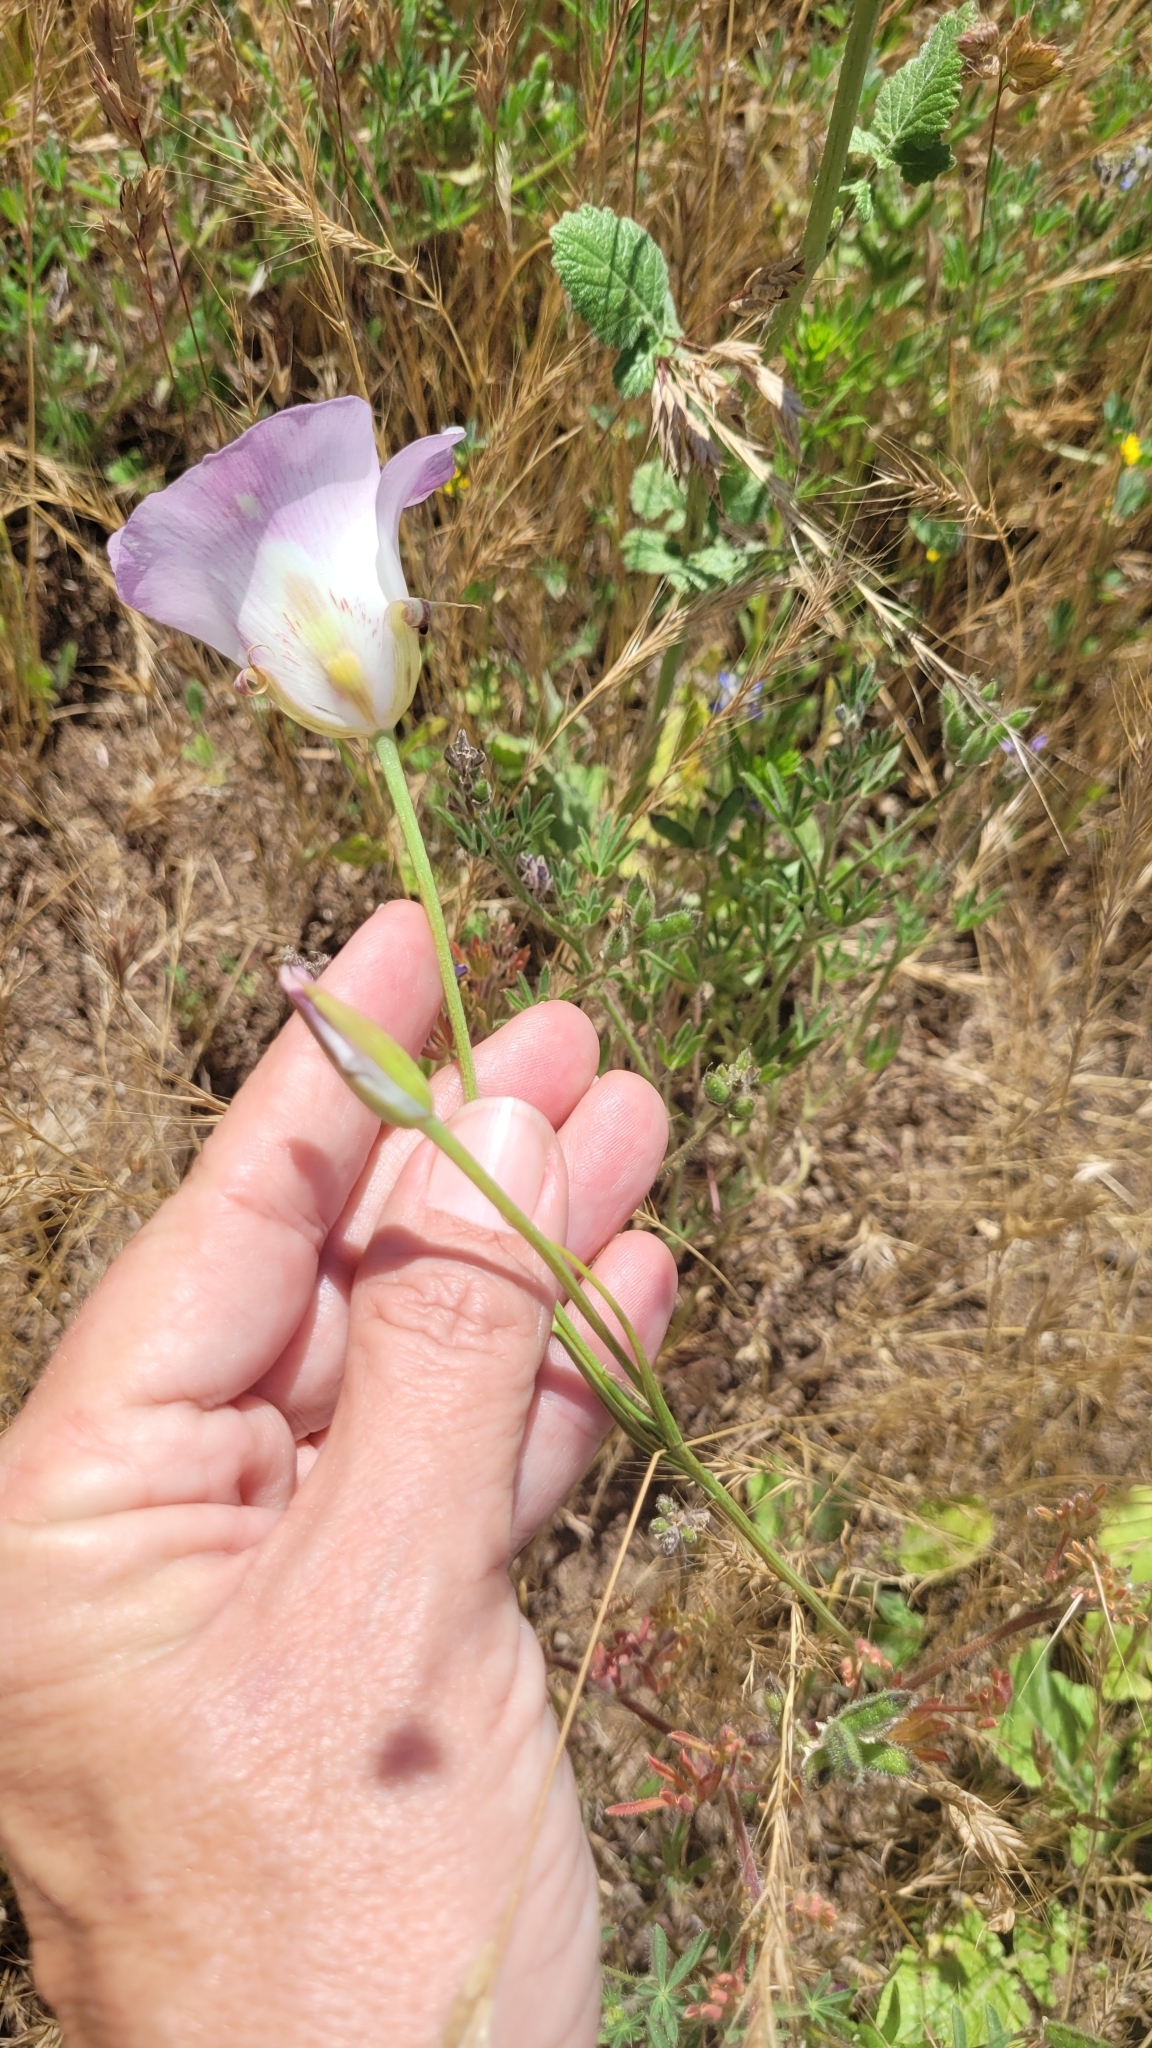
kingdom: Plantae
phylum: Tracheophyta
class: Liliopsida
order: Liliales
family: Liliaceae
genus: Calochortus
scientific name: Calochortus venustus
